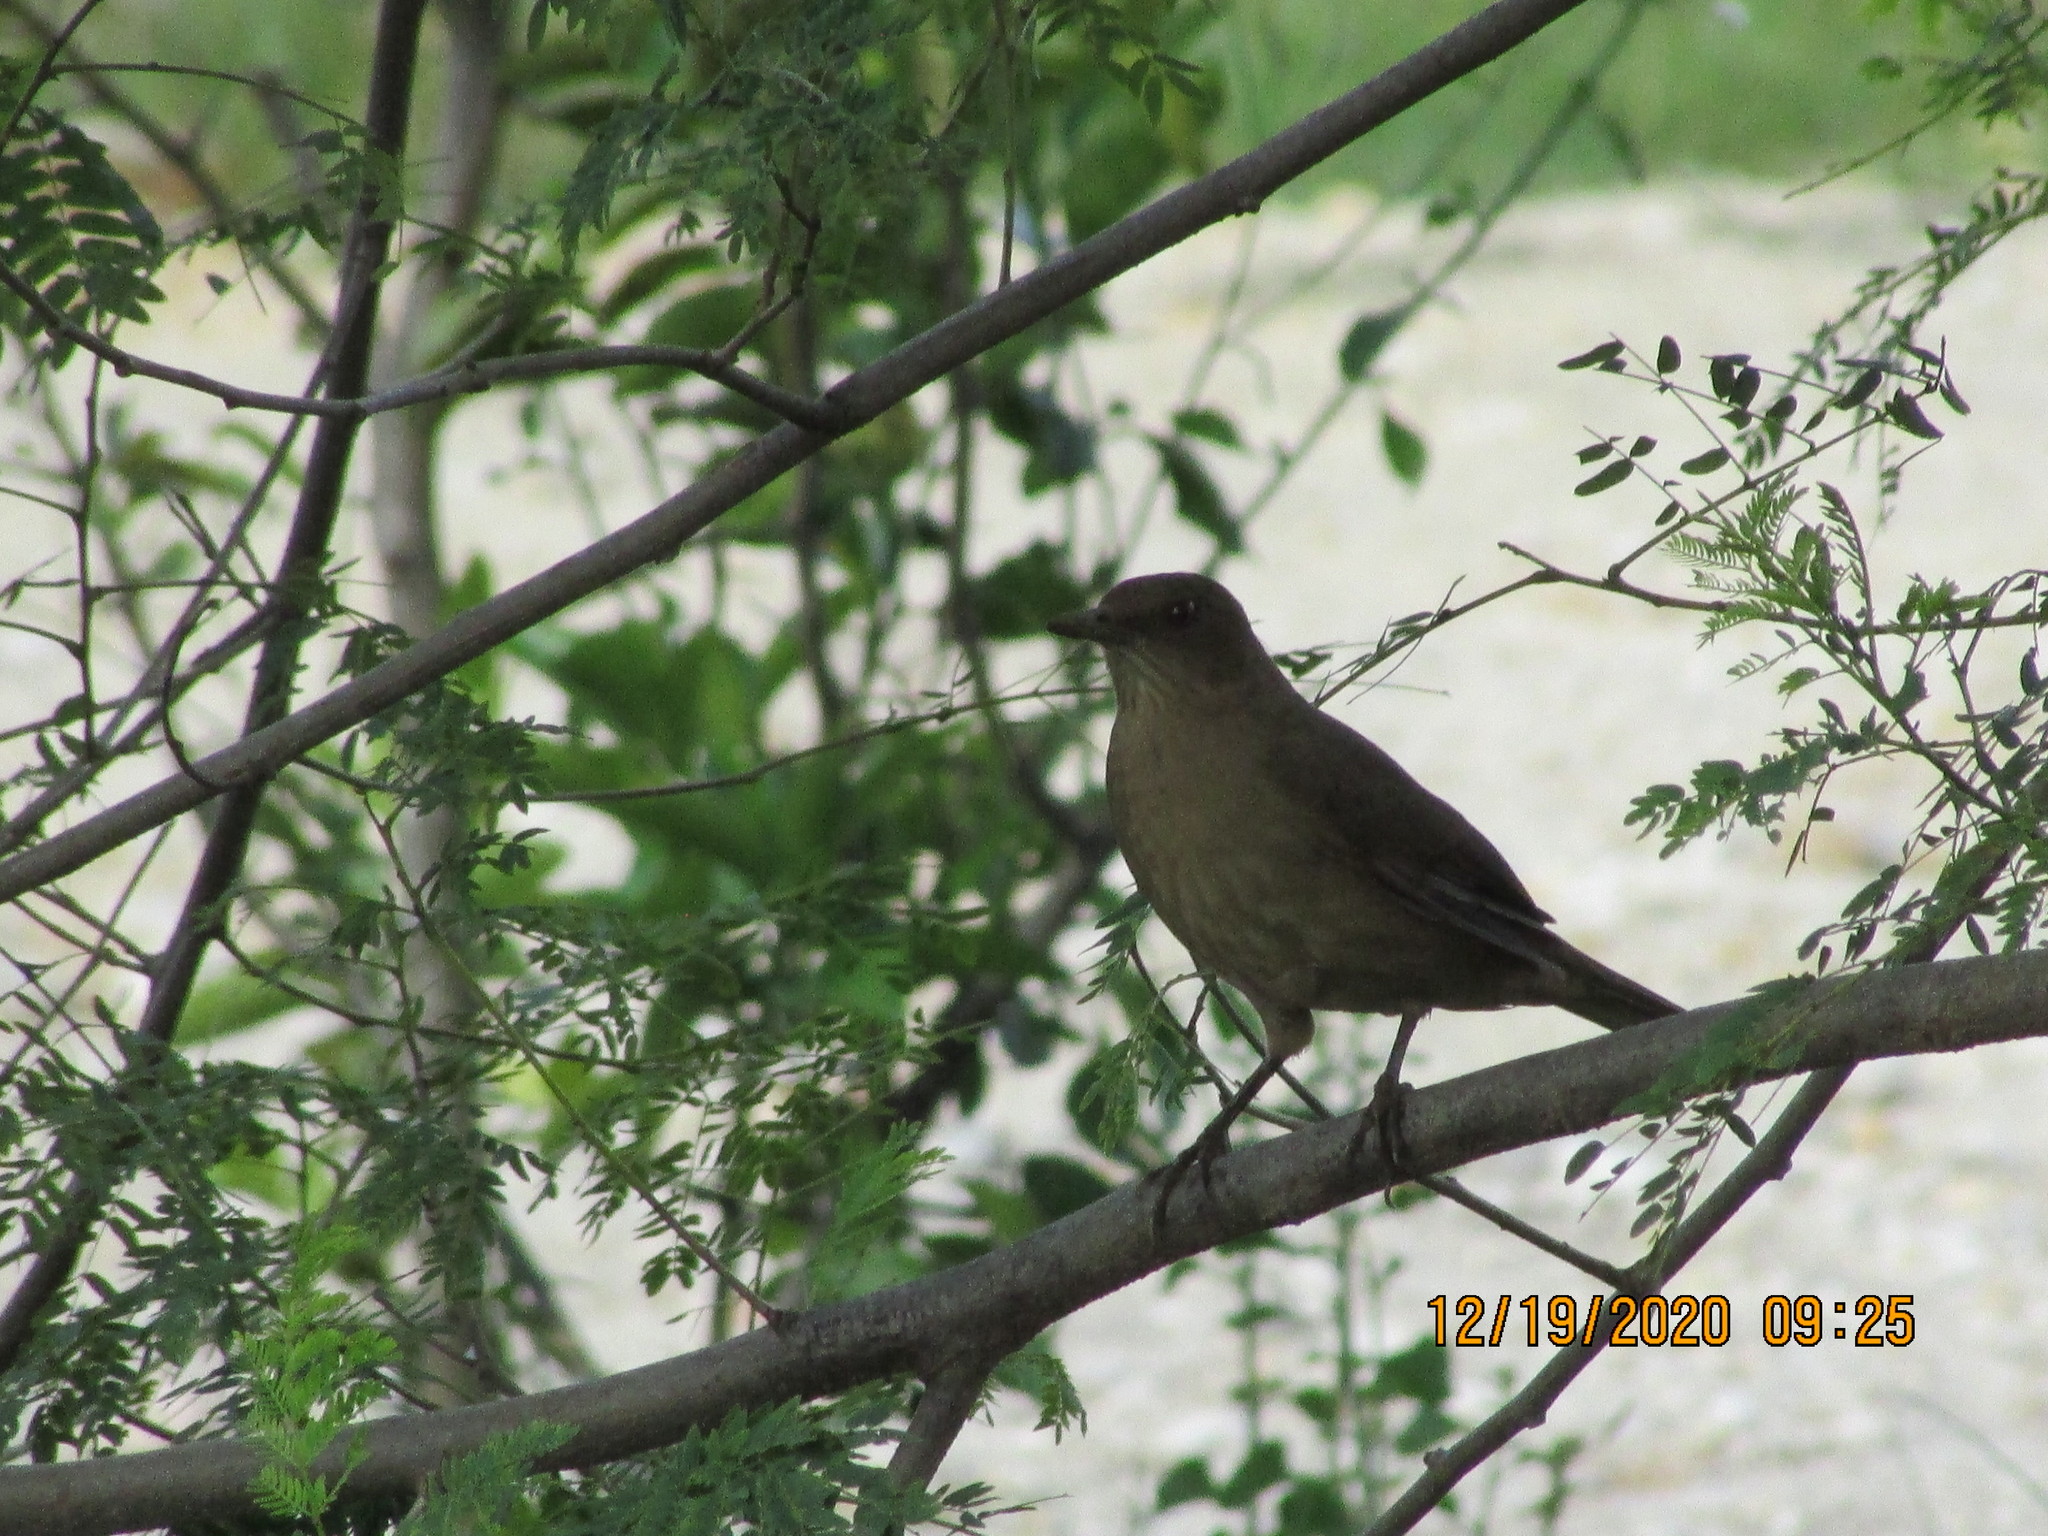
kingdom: Animalia
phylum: Chordata
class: Aves
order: Passeriformes
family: Turdidae
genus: Turdus
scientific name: Turdus grayi
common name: Clay-colored thrush
